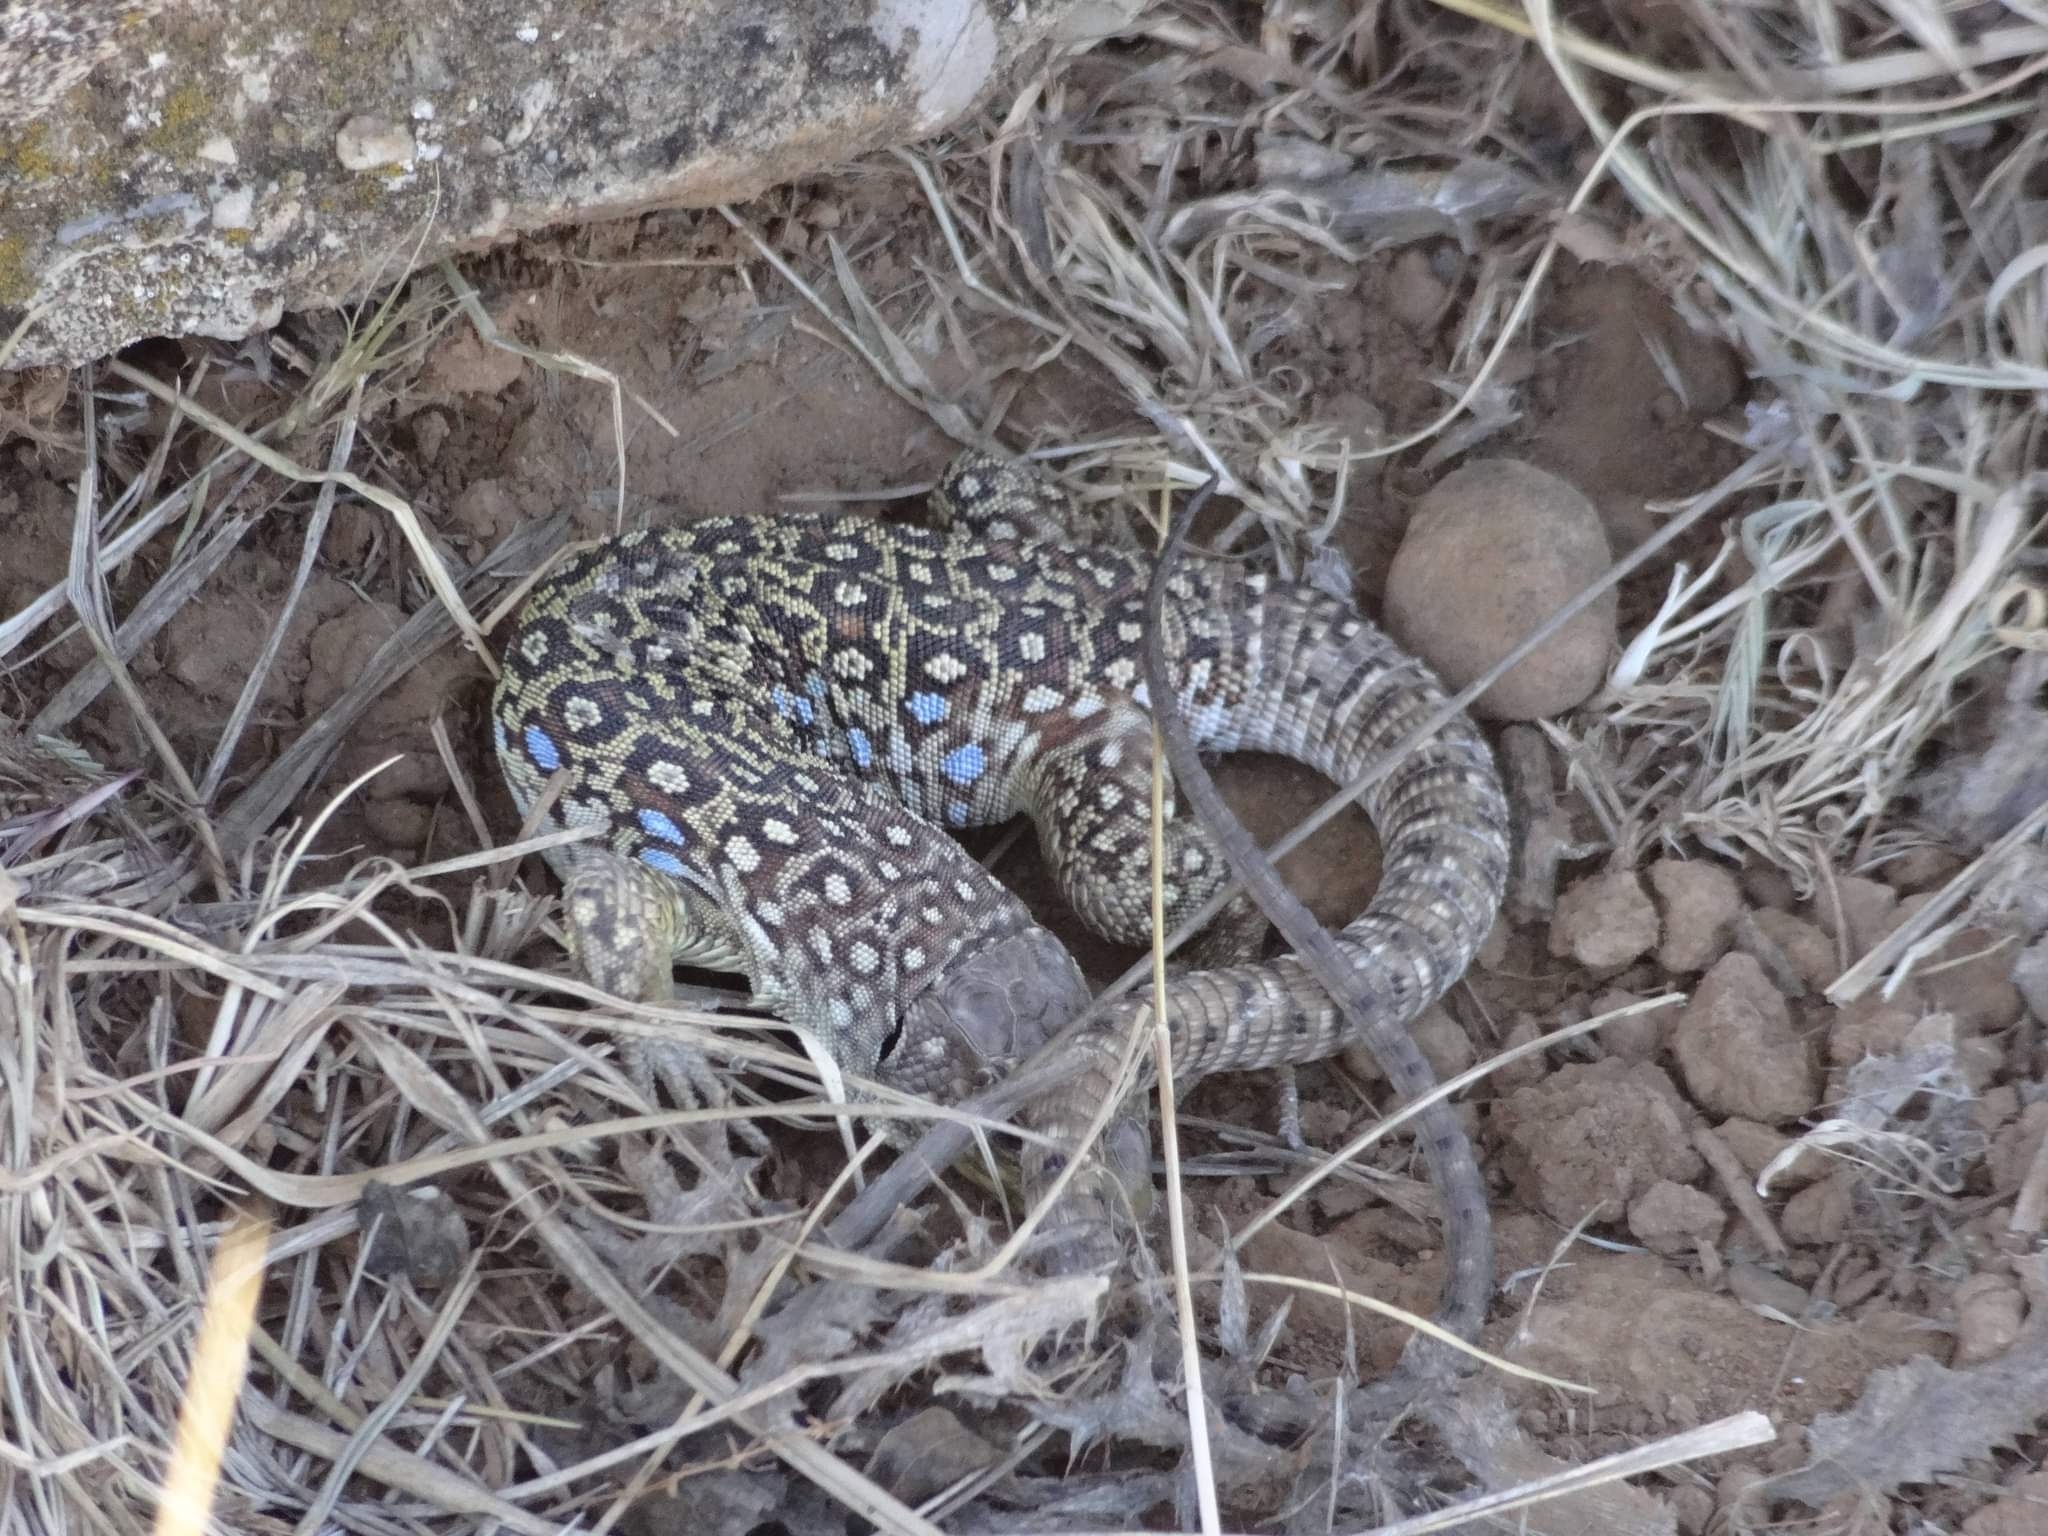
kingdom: Animalia
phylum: Chordata
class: Squamata
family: Lacertidae
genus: Timon
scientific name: Timon lepidus
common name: Ocellated lizard
